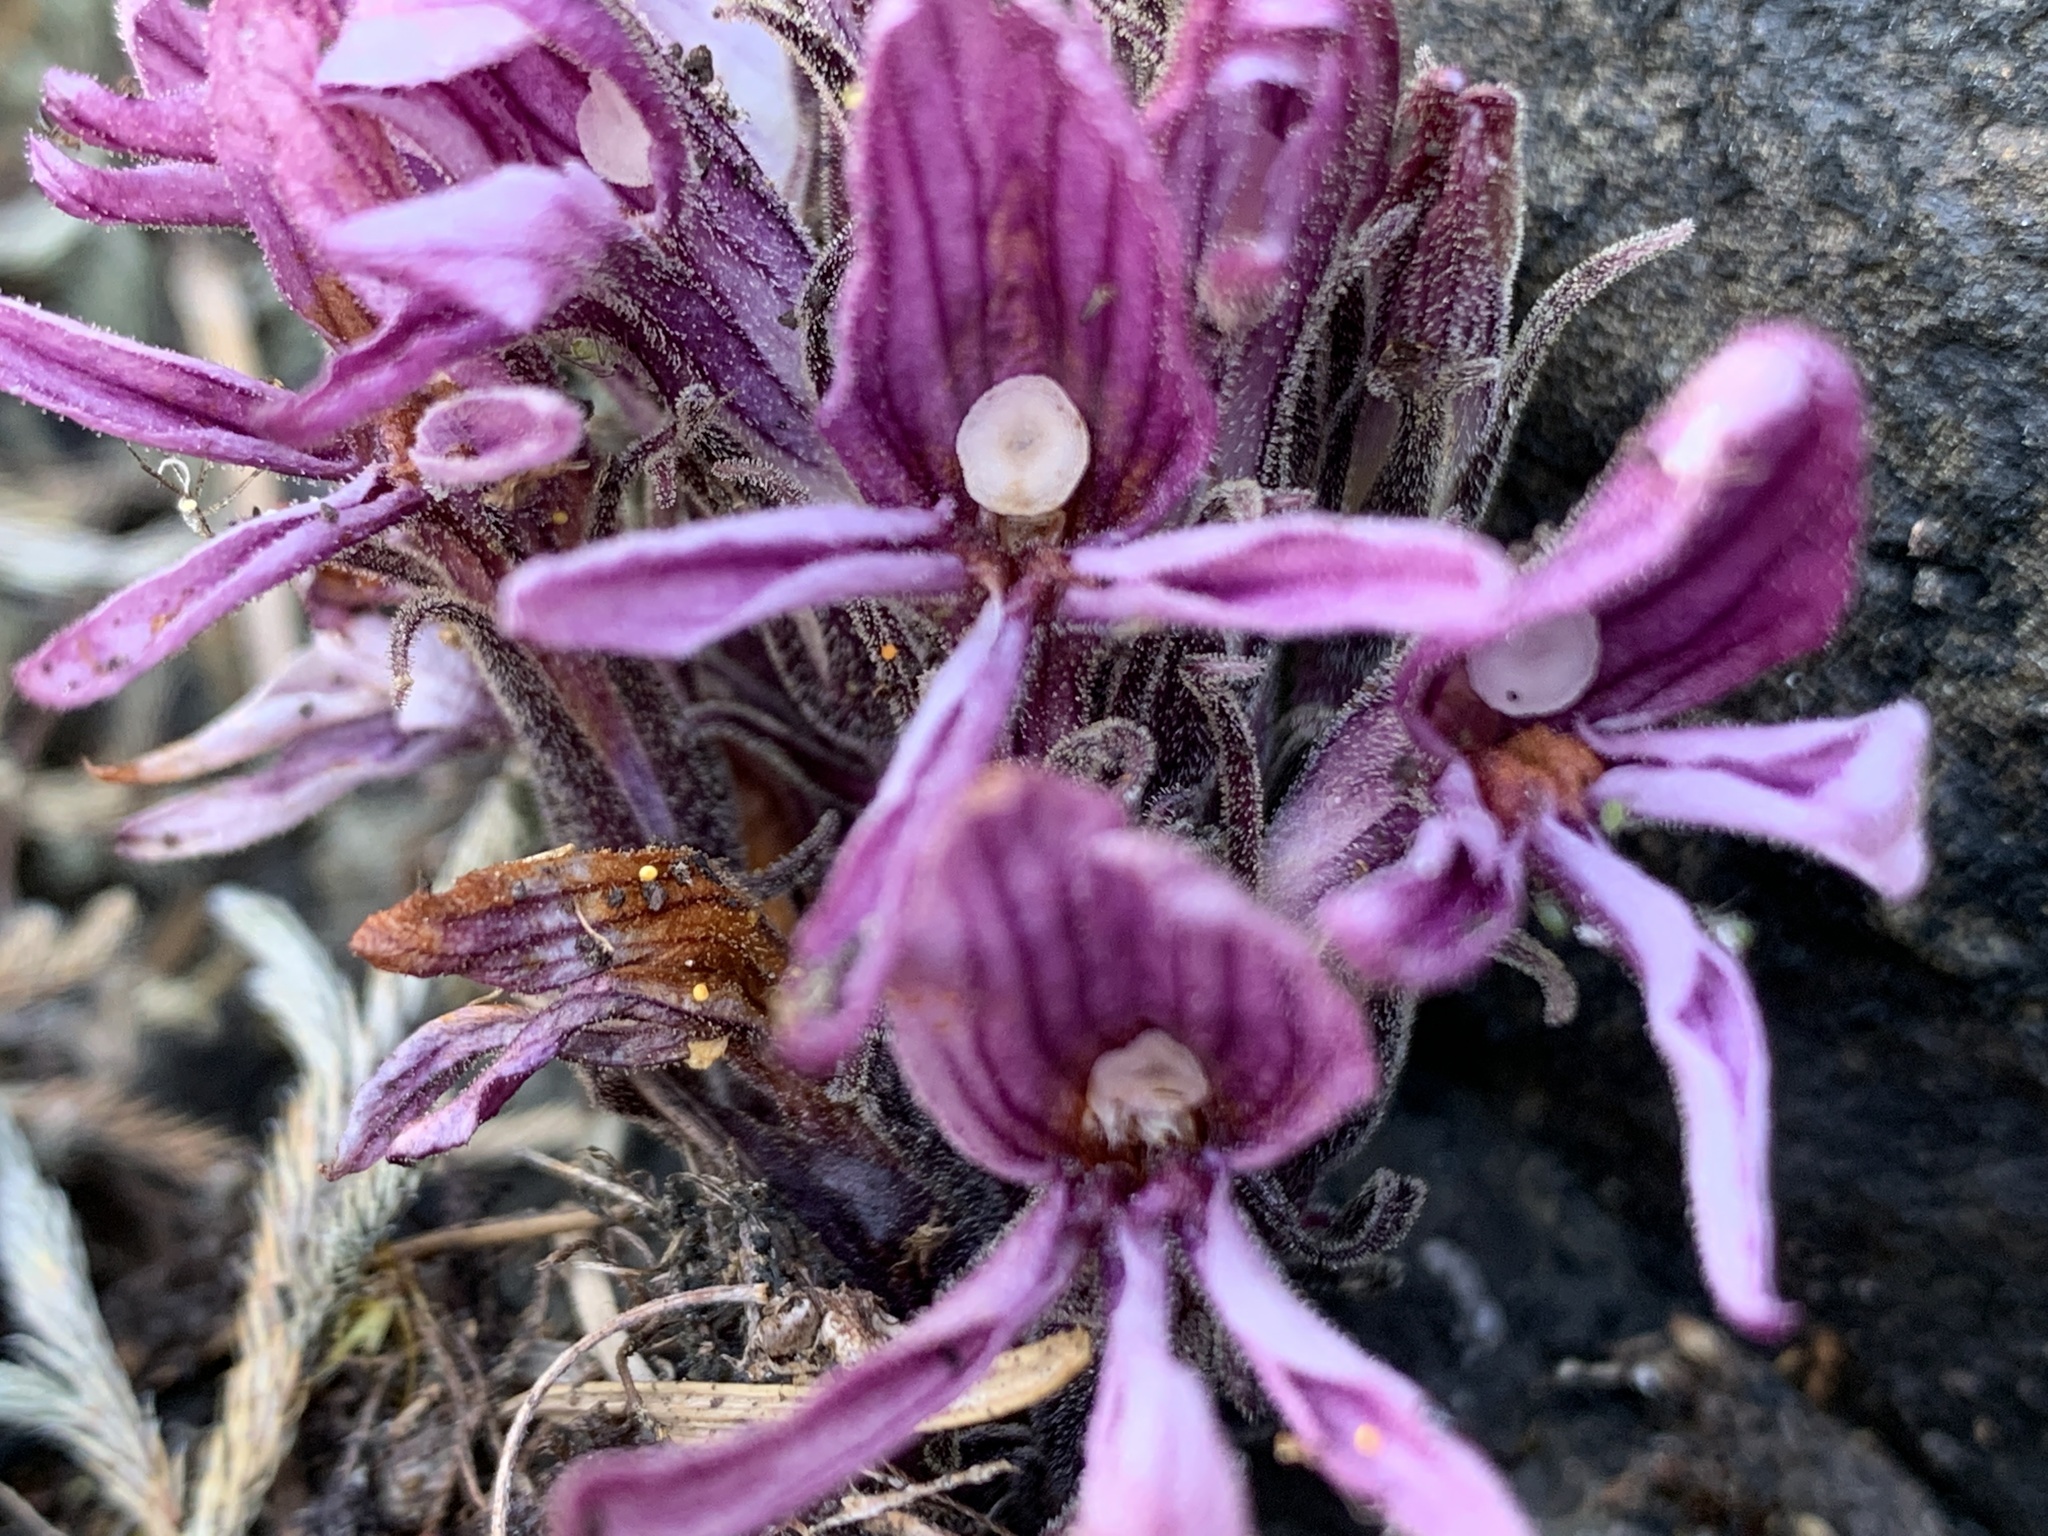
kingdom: Plantae
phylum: Tracheophyta
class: Magnoliopsida
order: Lamiales
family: Orobanchaceae
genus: Aphyllon
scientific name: Aphyllon californicum
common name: California broomrape
